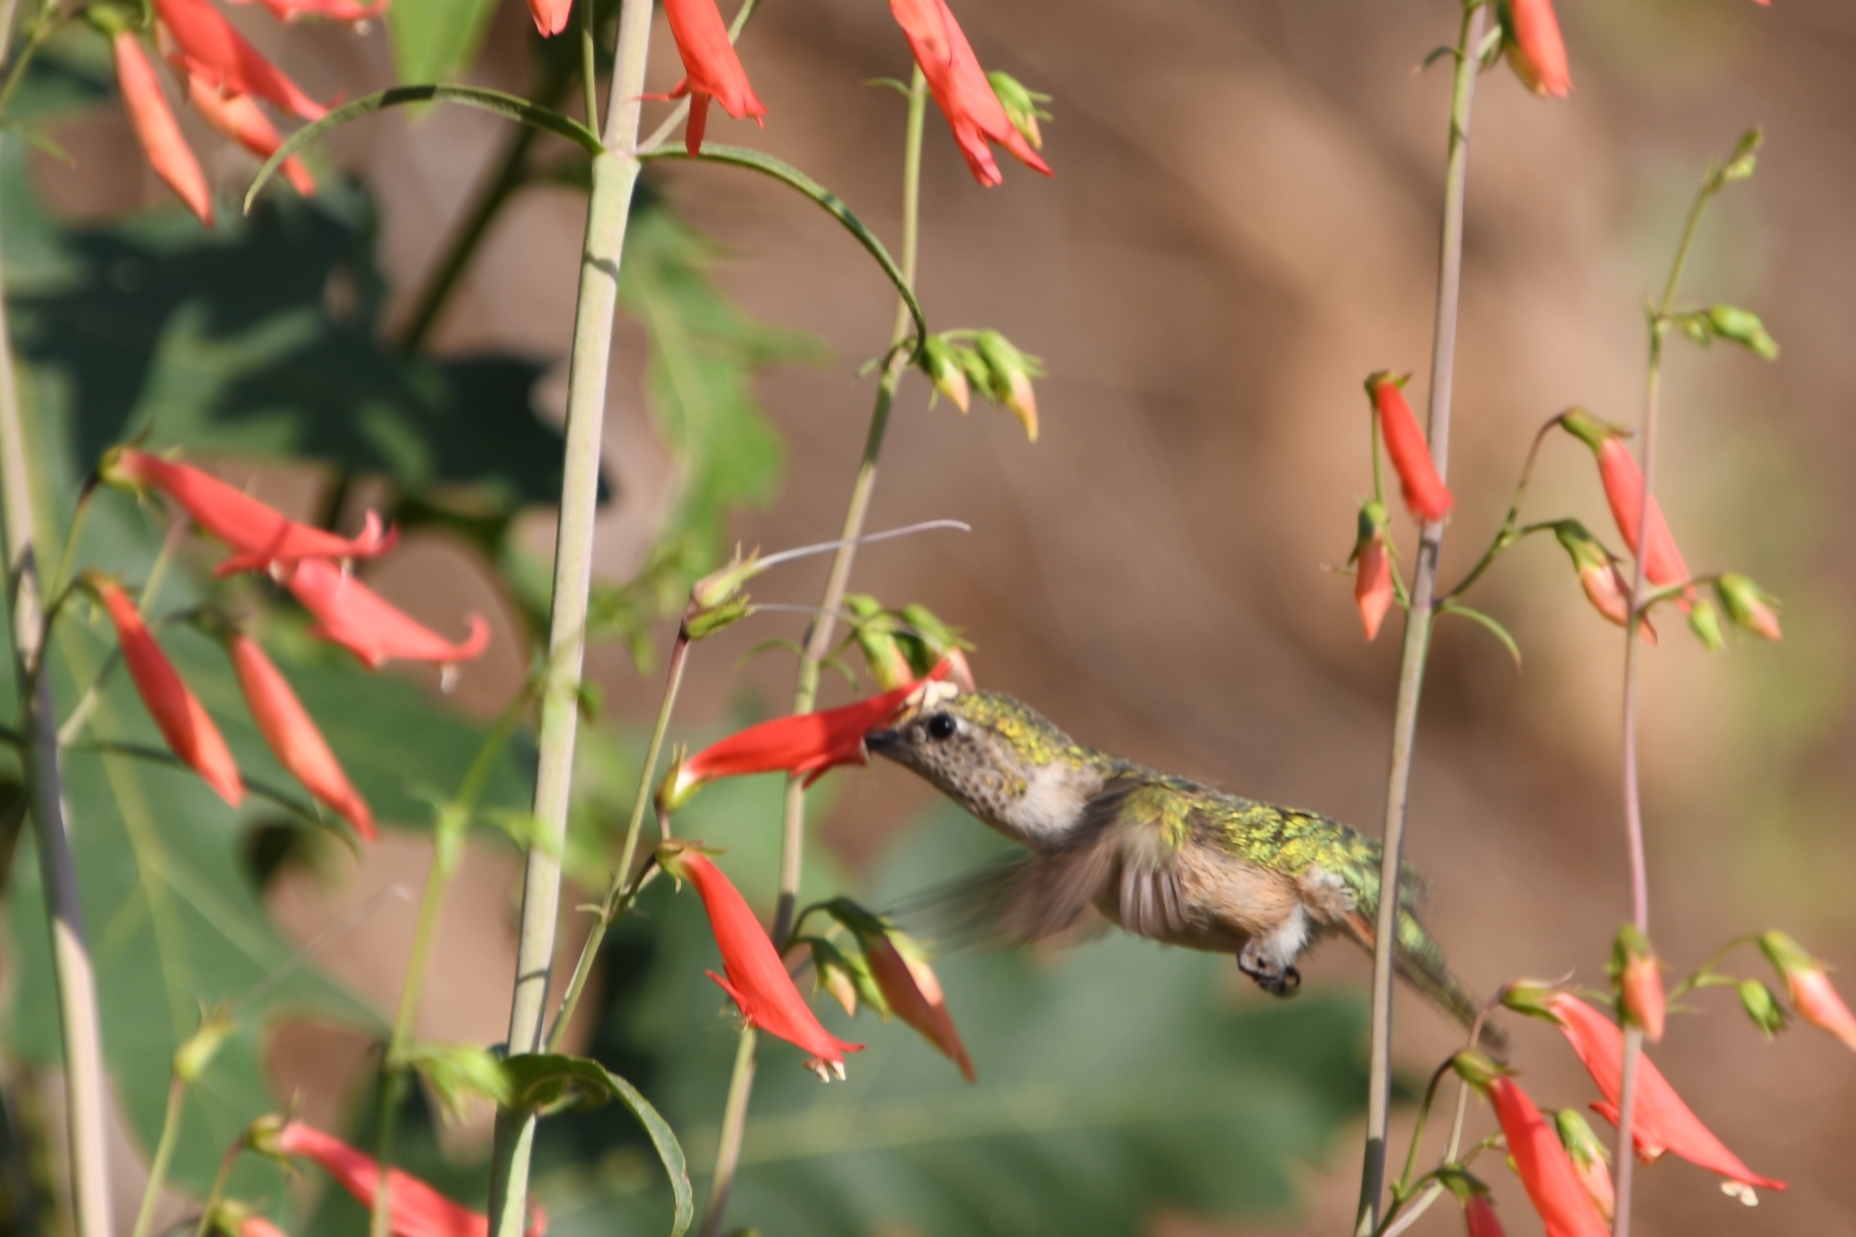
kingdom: Animalia
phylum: Chordata
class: Aves
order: Apodiformes
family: Trochilidae
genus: Selasphorus
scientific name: Selasphorus platycercus
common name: Broad-tailed hummingbird
